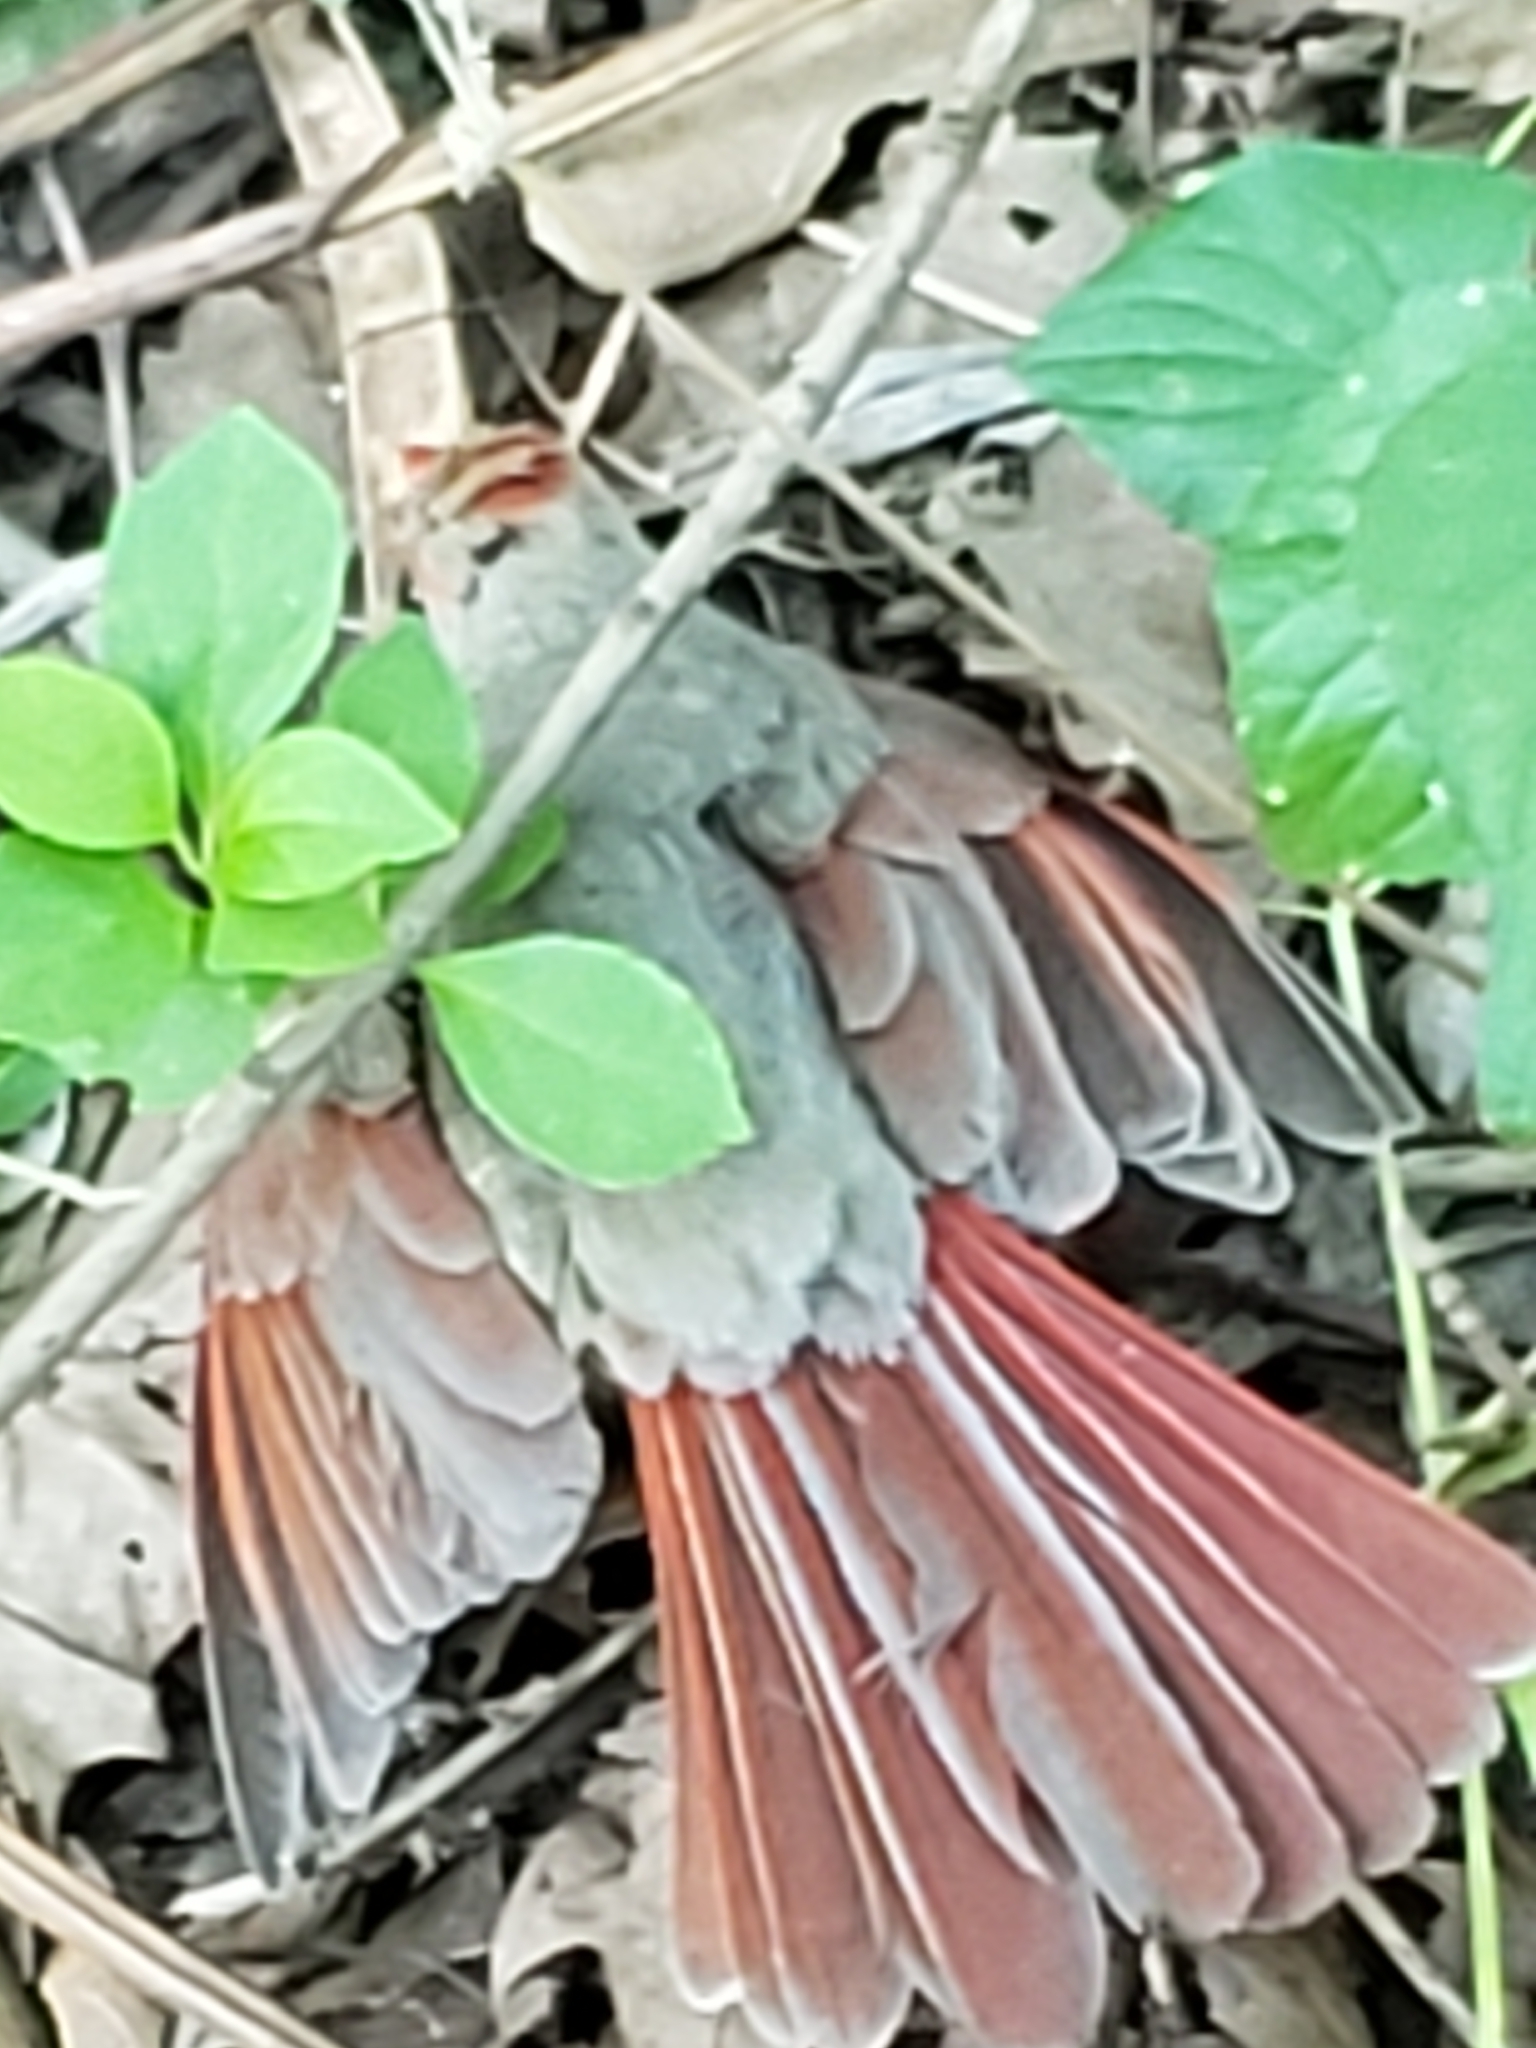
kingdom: Animalia
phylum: Chordata
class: Aves
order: Passeriformes
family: Cardinalidae
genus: Cardinalis
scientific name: Cardinalis cardinalis
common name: Northern cardinal
